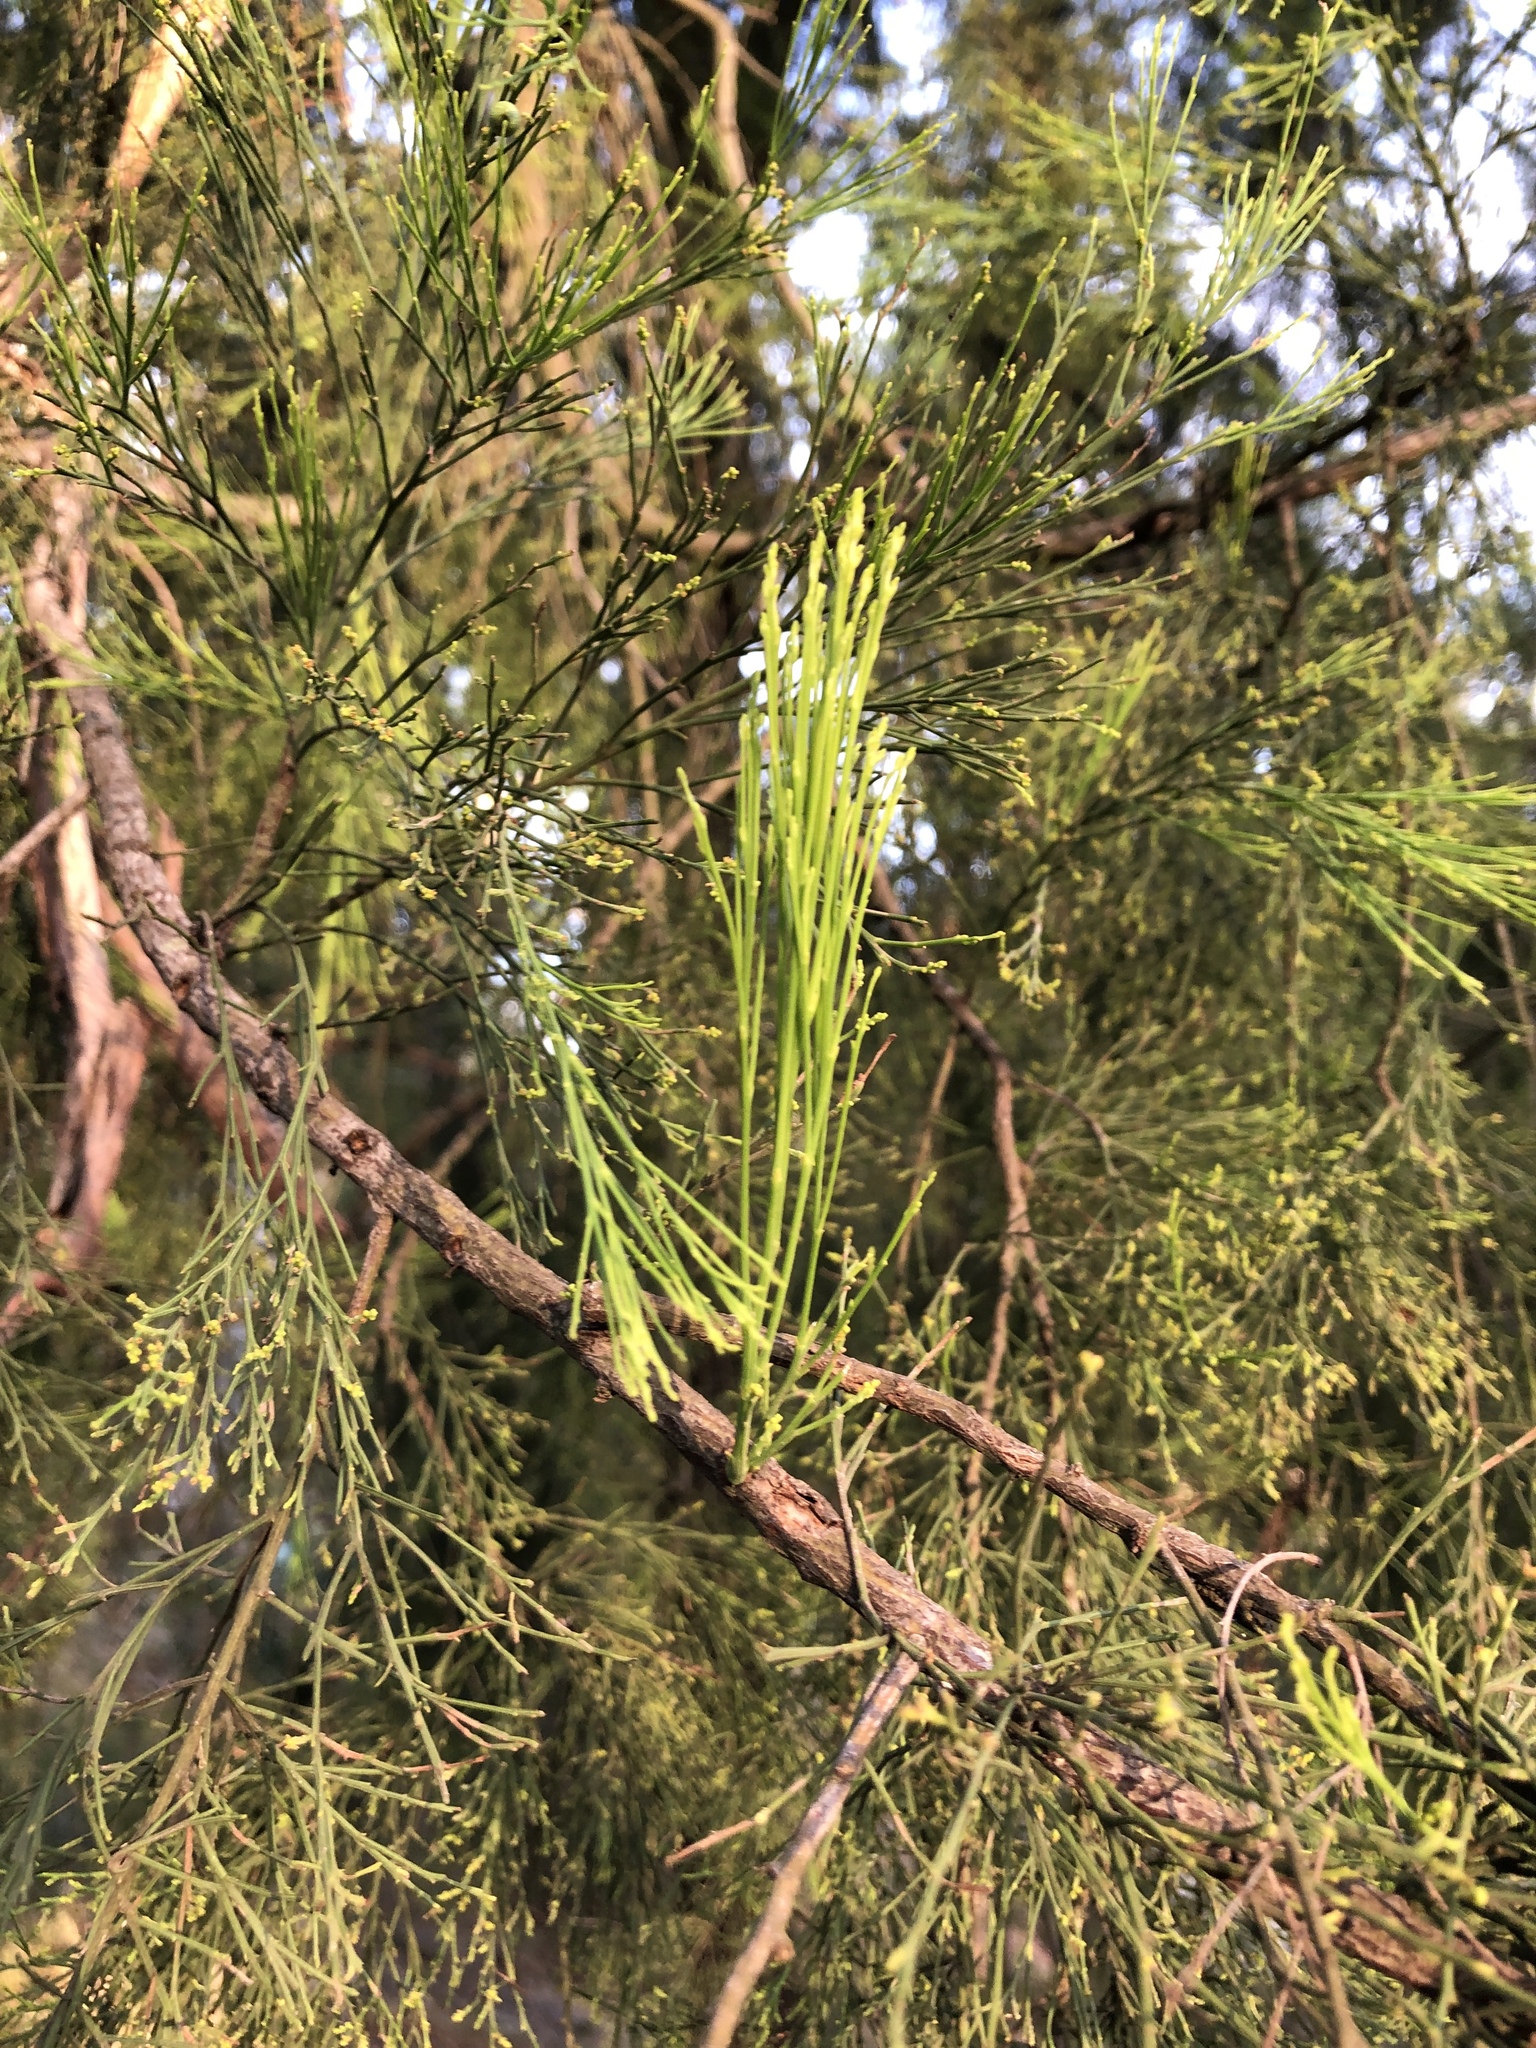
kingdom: Plantae
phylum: Tracheophyta
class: Magnoliopsida
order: Santalales
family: Santalaceae
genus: Exocarpos
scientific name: Exocarpos cupressiformis
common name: Cherry ballart
